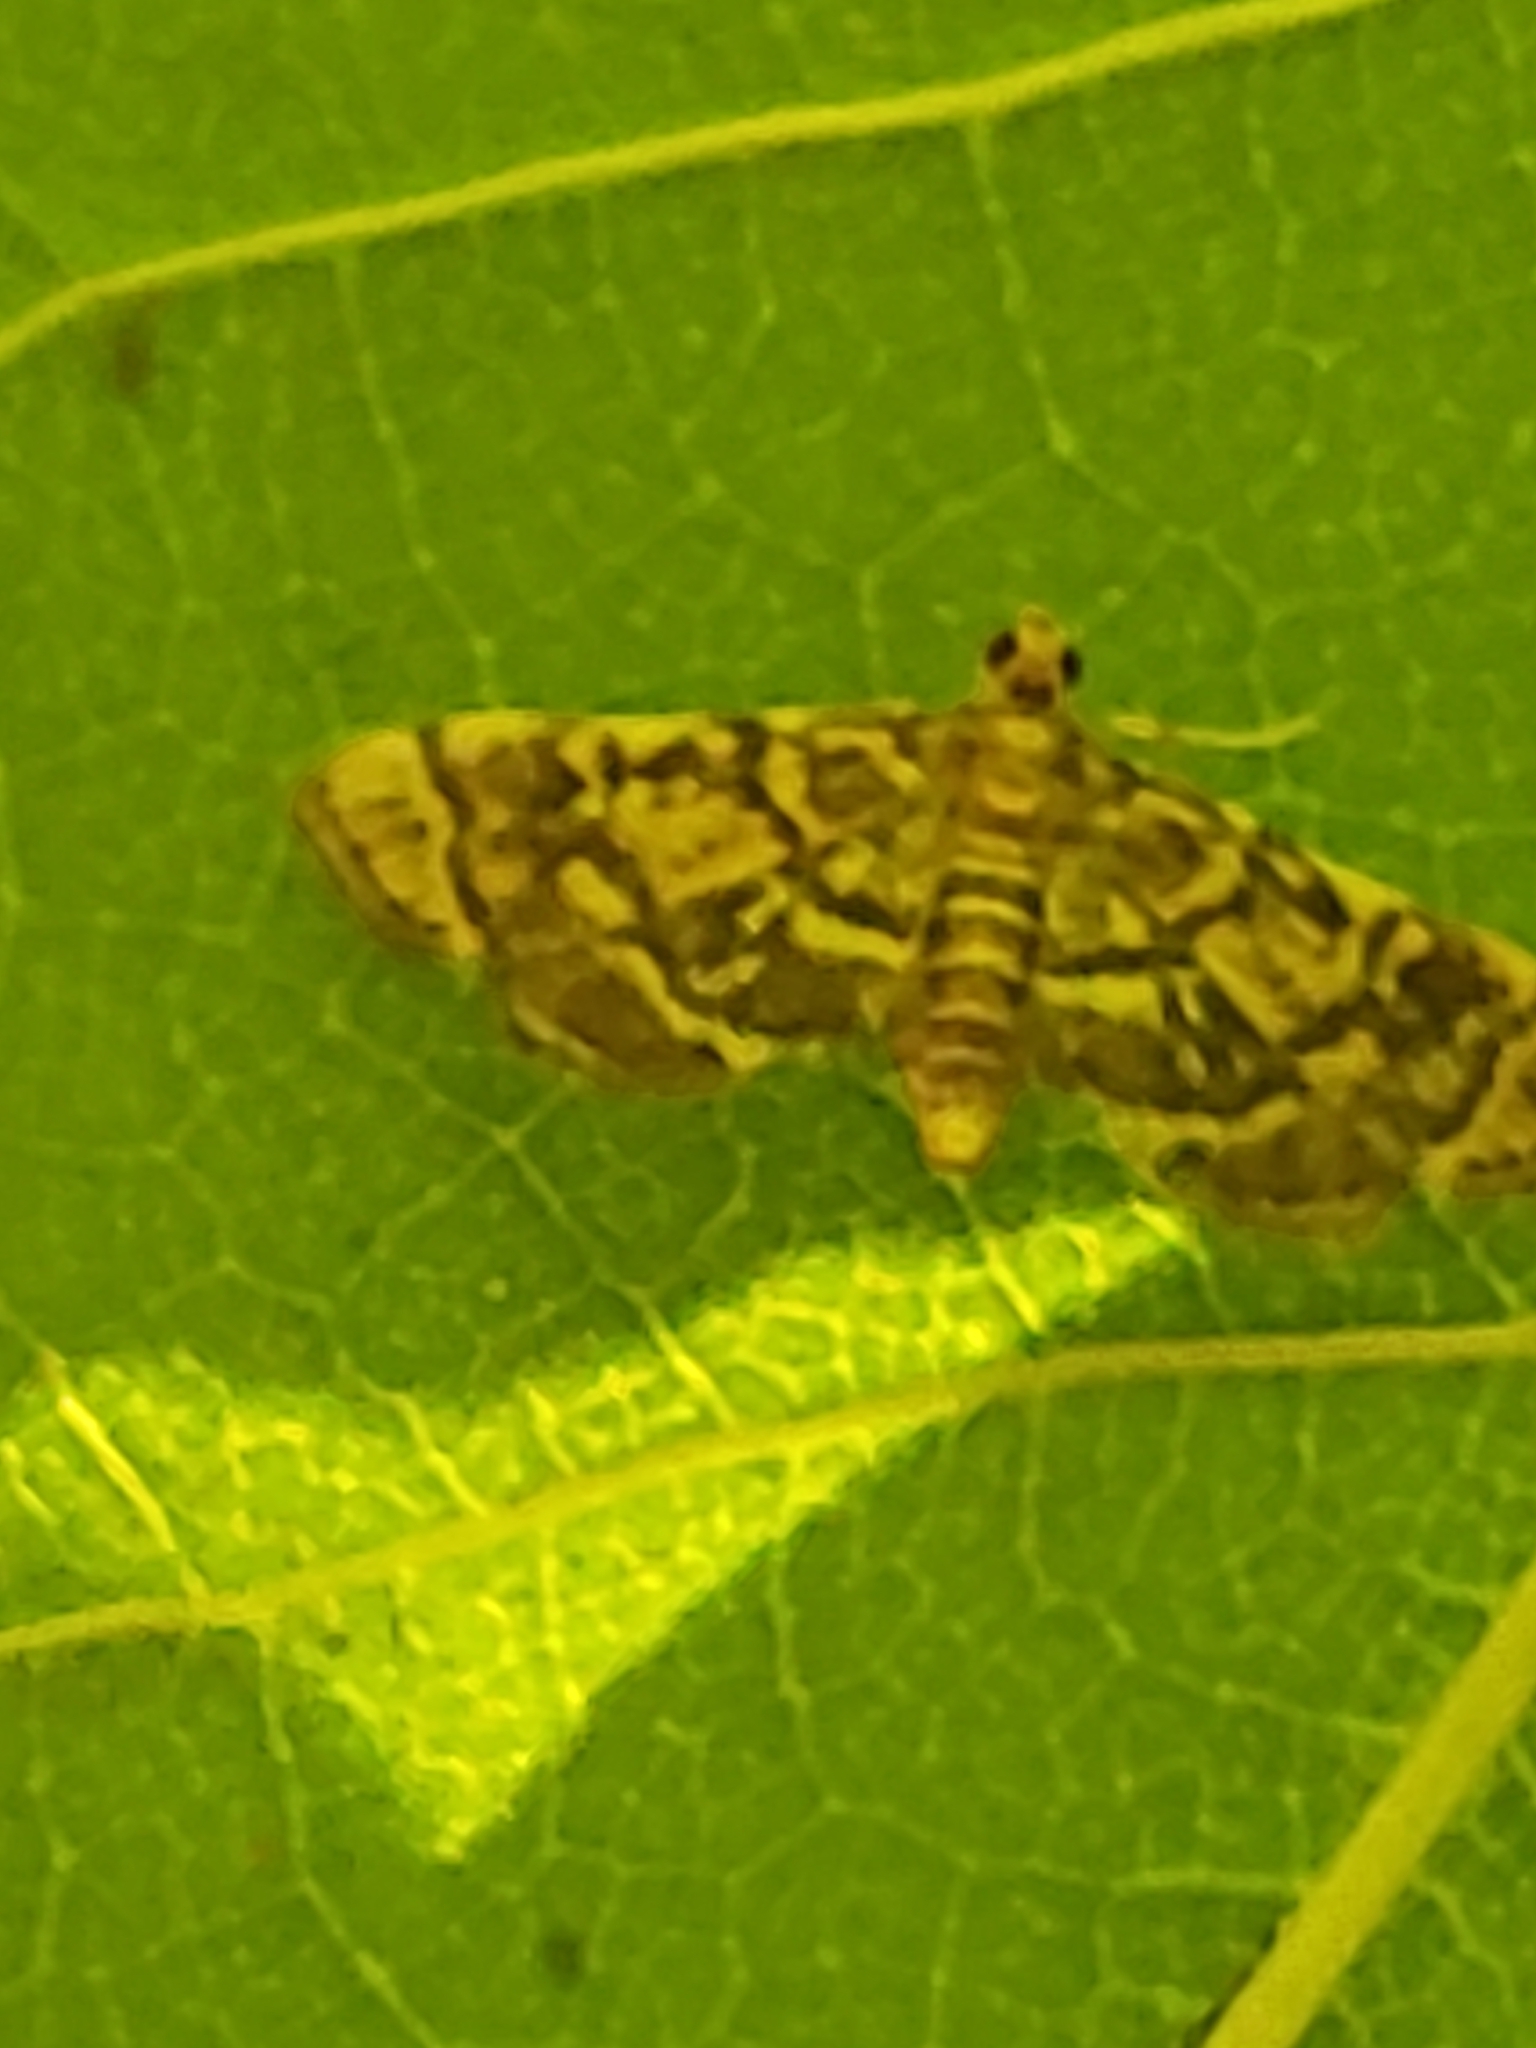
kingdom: Animalia
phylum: Arthropoda
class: Insecta
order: Lepidoptera
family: Crambidae
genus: Apogeshna
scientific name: Apogeshna stenialis
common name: Checkered apogeshna moth
